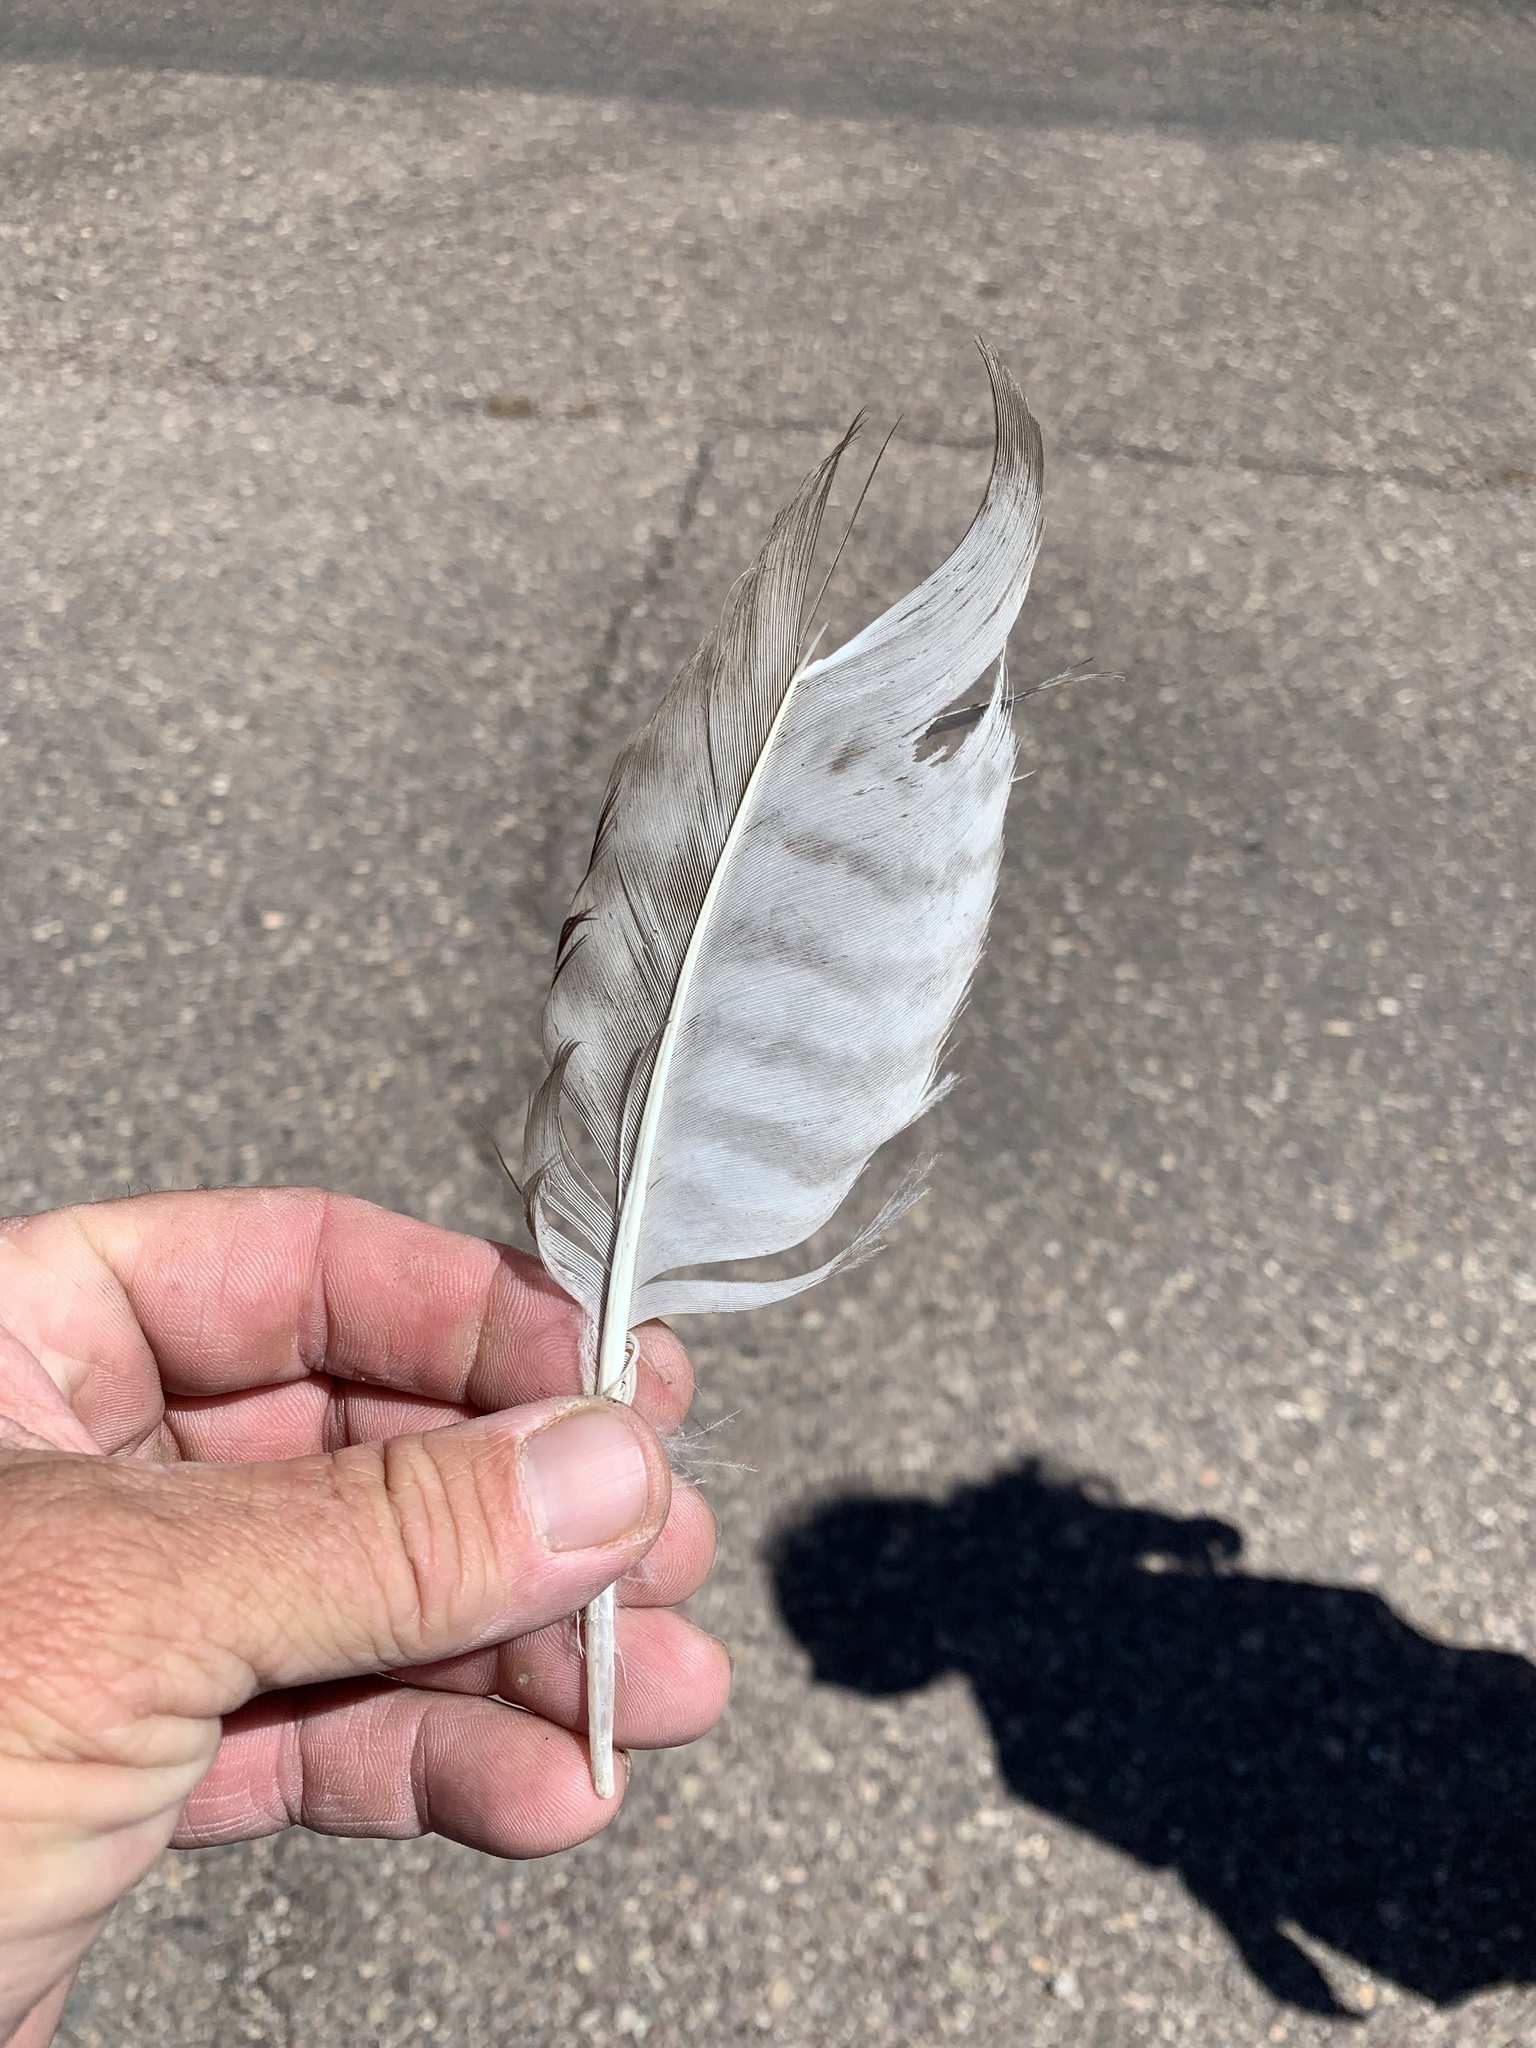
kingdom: Animalia
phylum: Chordata
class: Aves
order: Accipitriformes
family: Accipitridae
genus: Buteo
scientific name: Buteo jamaicensis
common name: Red-tailed hawk
